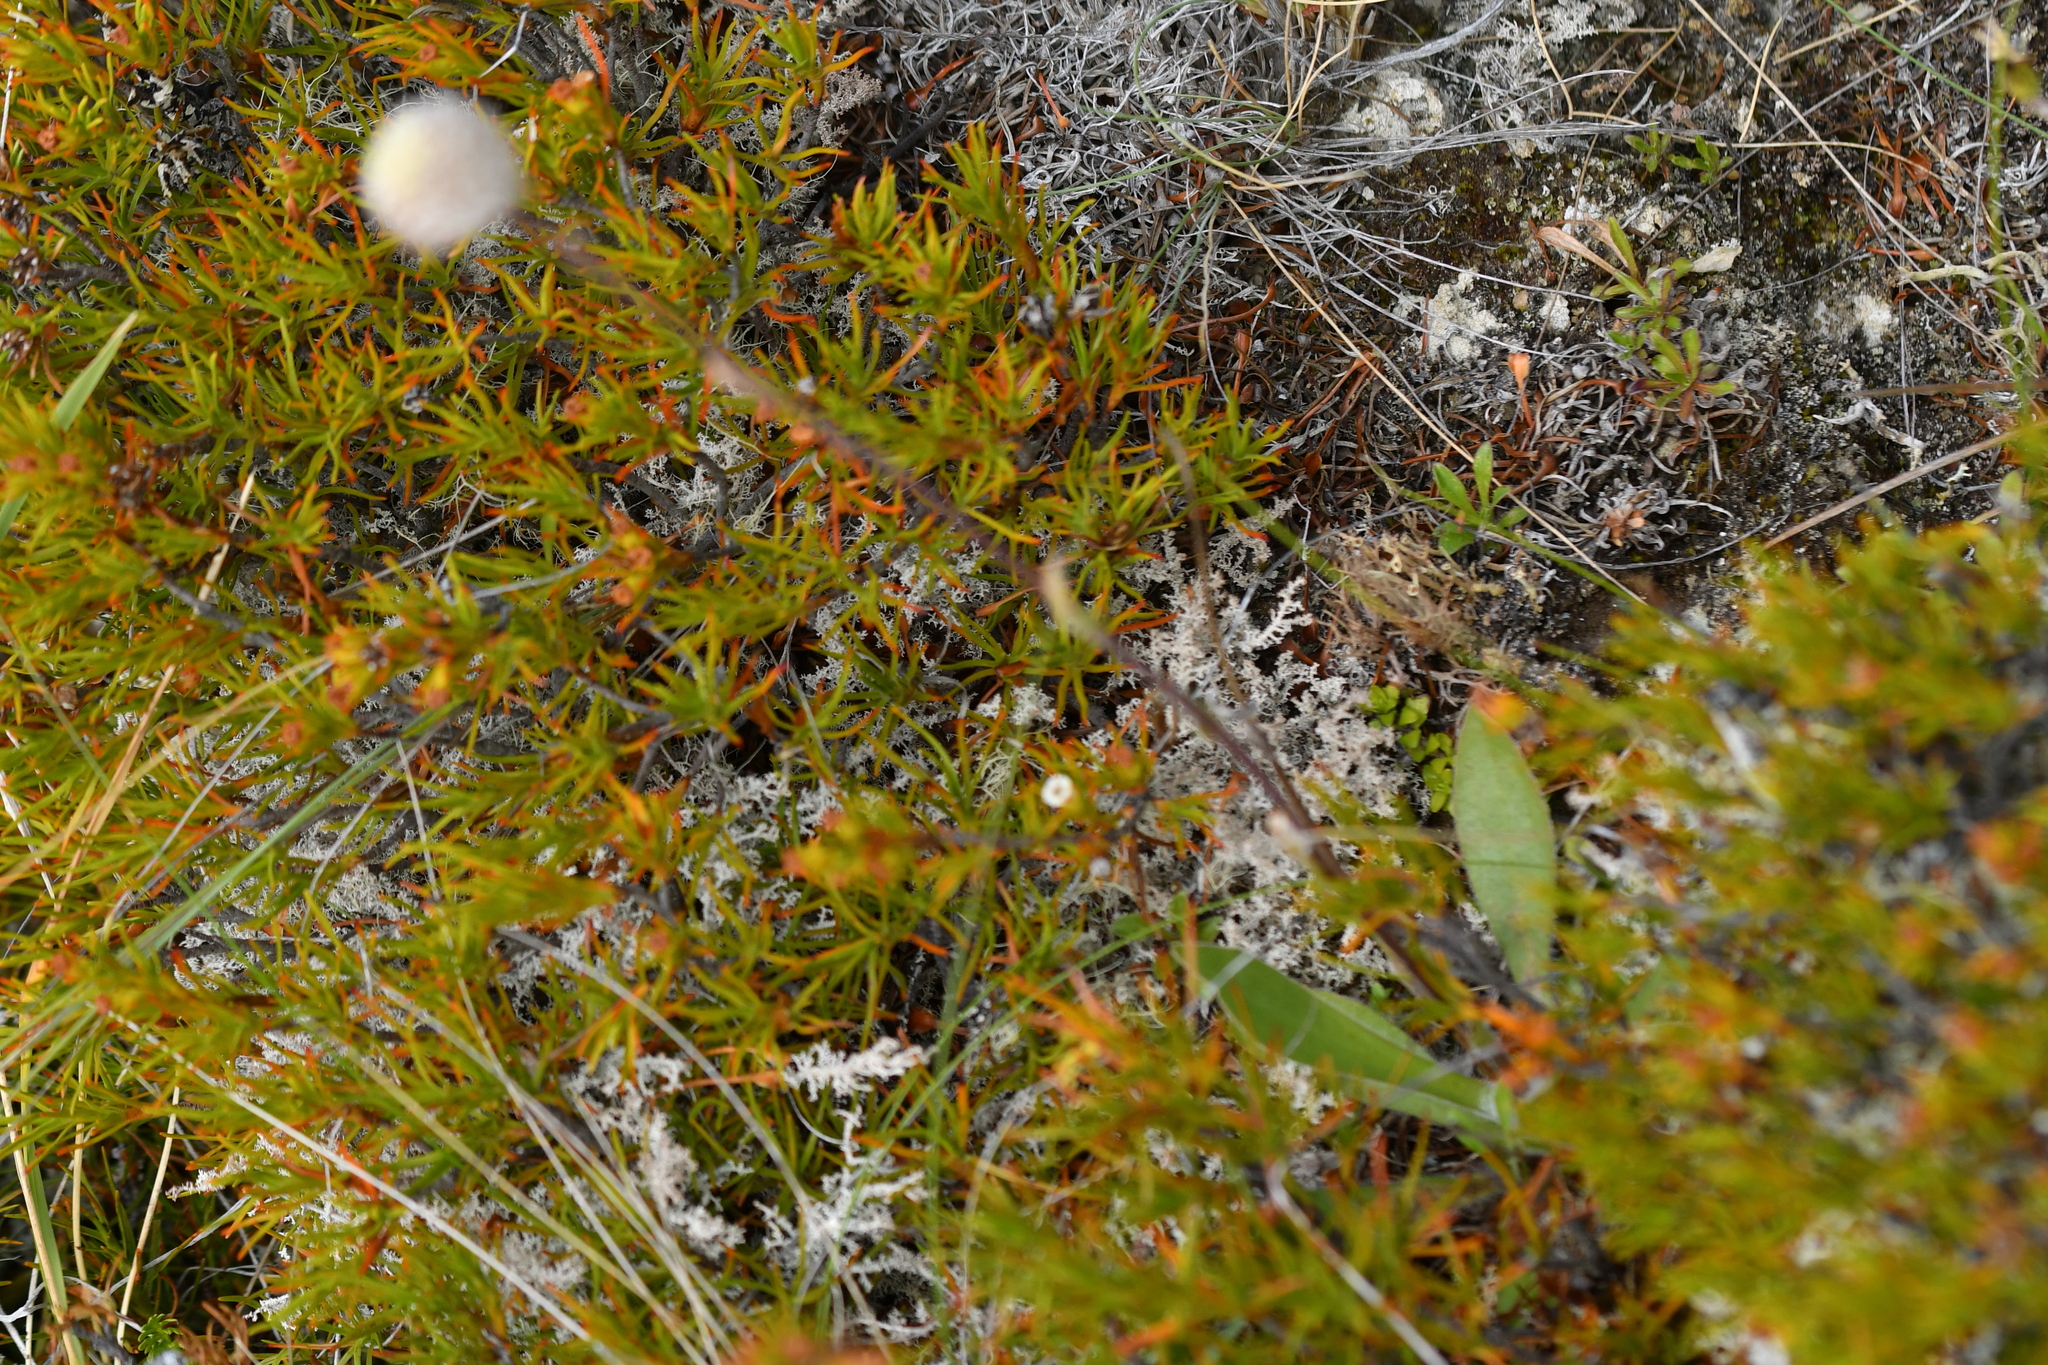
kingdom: Plantae
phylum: Tracheophyta
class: Magnoliopsida
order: Asterales
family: Asteraceae
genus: Craspedia
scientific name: Craspedia uniflora
